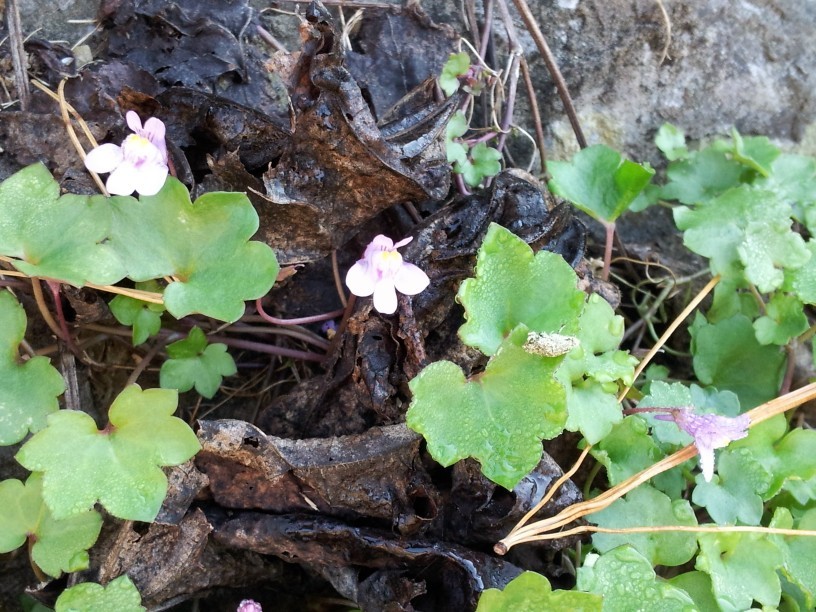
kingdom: Plantae
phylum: Tracheophyta
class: Magnoliopsida
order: Lamiales
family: Plantaginaceae
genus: Cymbalaria
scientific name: Cymbalaria muralis
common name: Ivy-leaved toadflax
